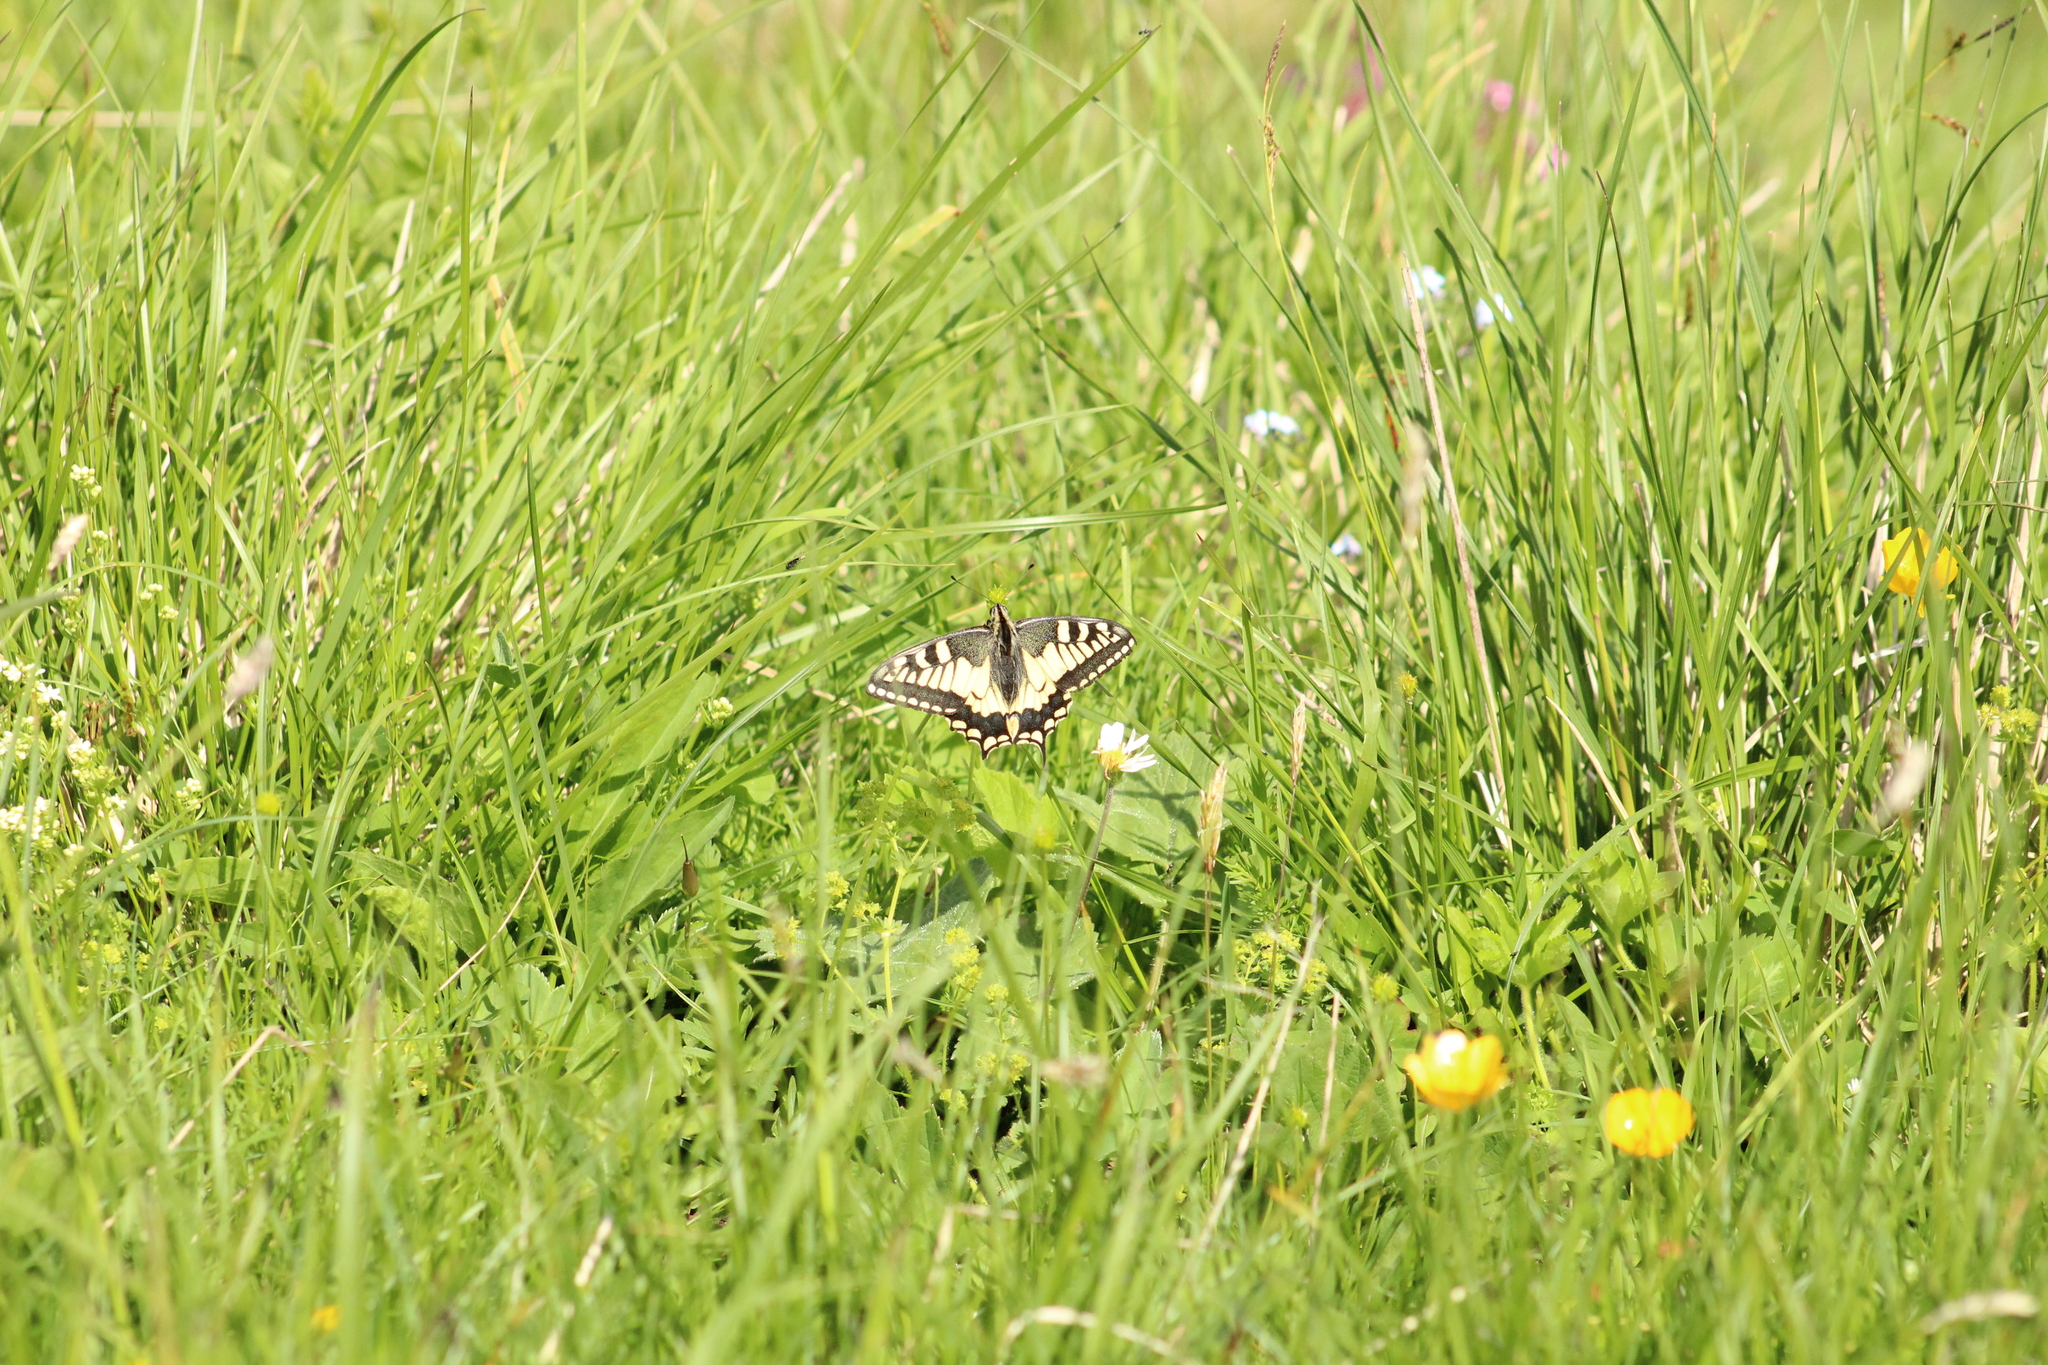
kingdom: Animalia
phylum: Arthropoda
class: Insecta
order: Lepidoptera
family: Papilionidae
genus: Papilio
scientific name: Papilio machaon
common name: Swallowtail
